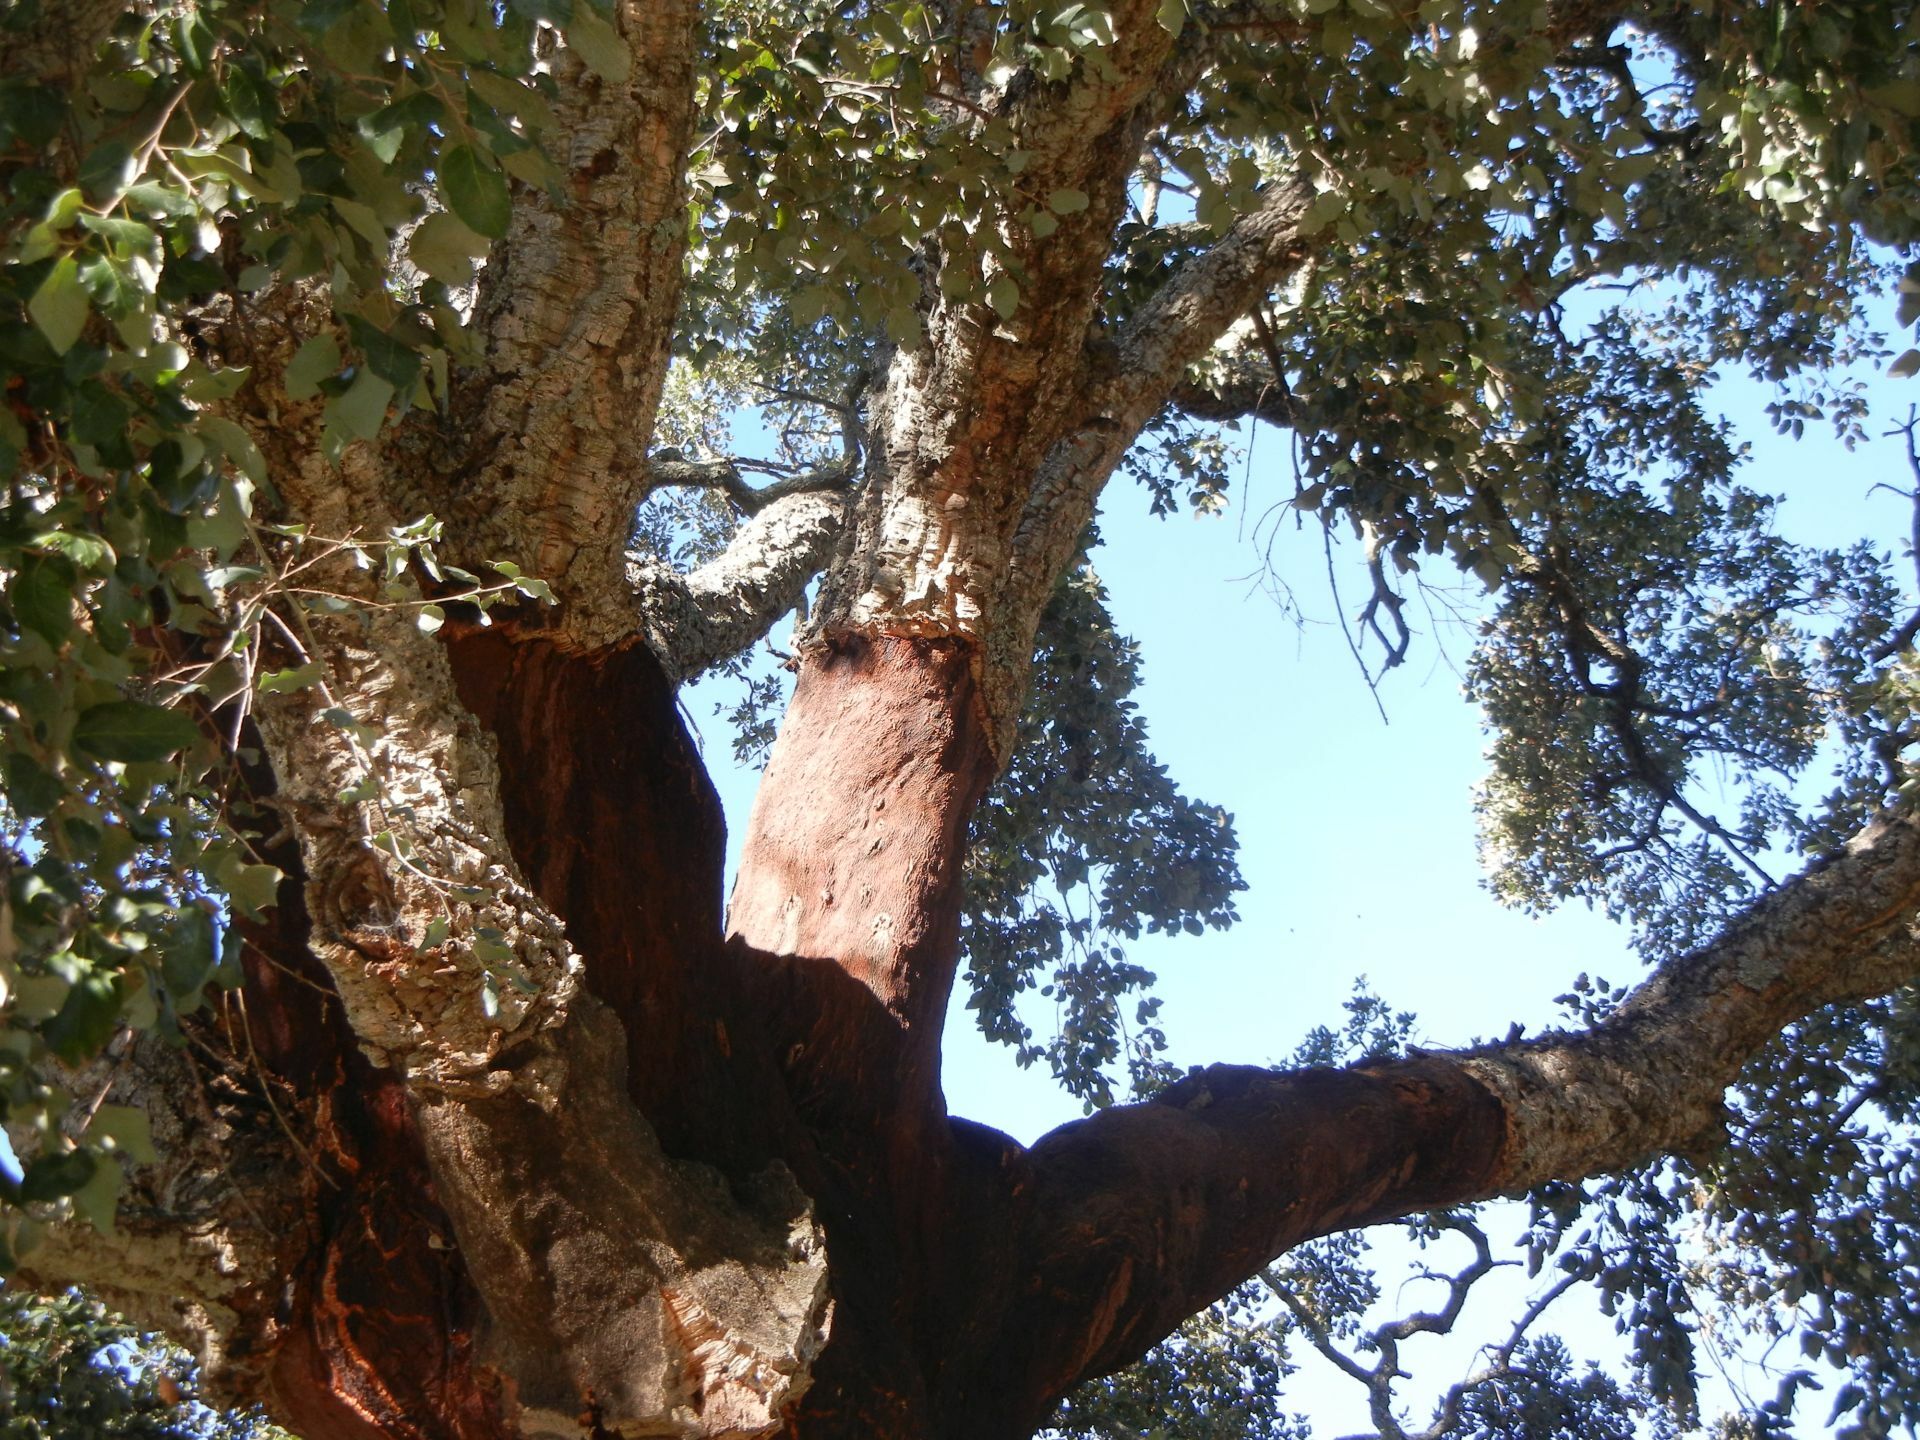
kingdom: Plantae
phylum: Tracheophyta
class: Magnoliopsida
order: Fagales
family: Fagaceae
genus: Quercus
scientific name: Quercus suber
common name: Cork oak
